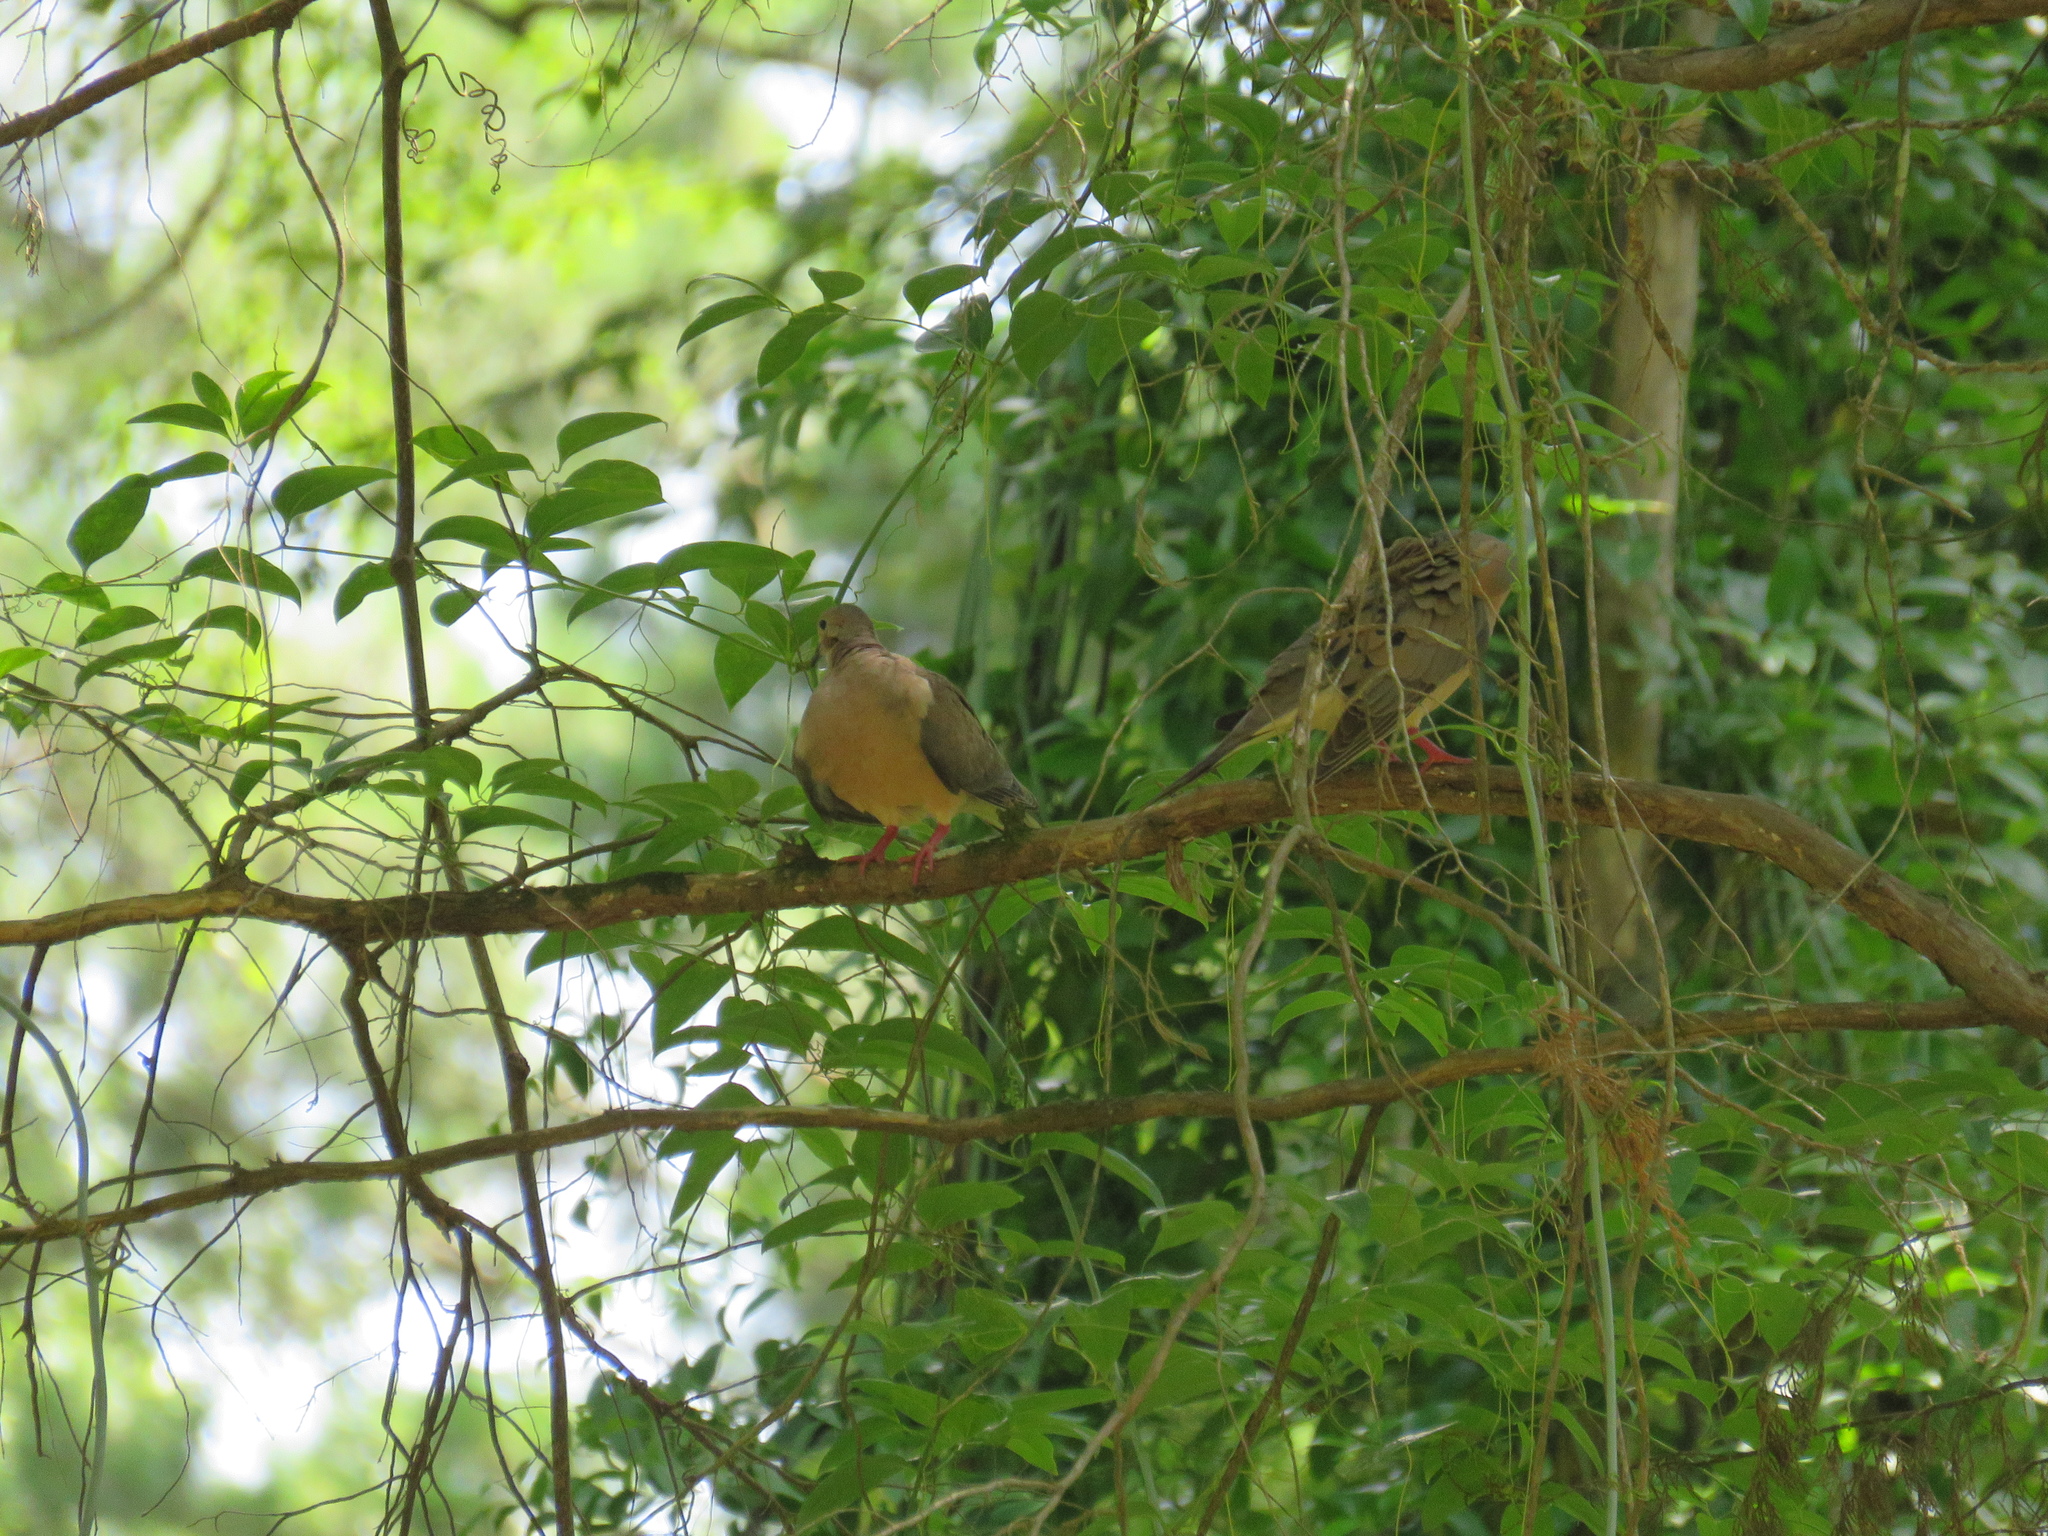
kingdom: Animalia
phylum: Chordata
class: Aves
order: Columbiformes
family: Columbidae
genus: Zenaida
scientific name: Zenaida macroura
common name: Mourning dove
